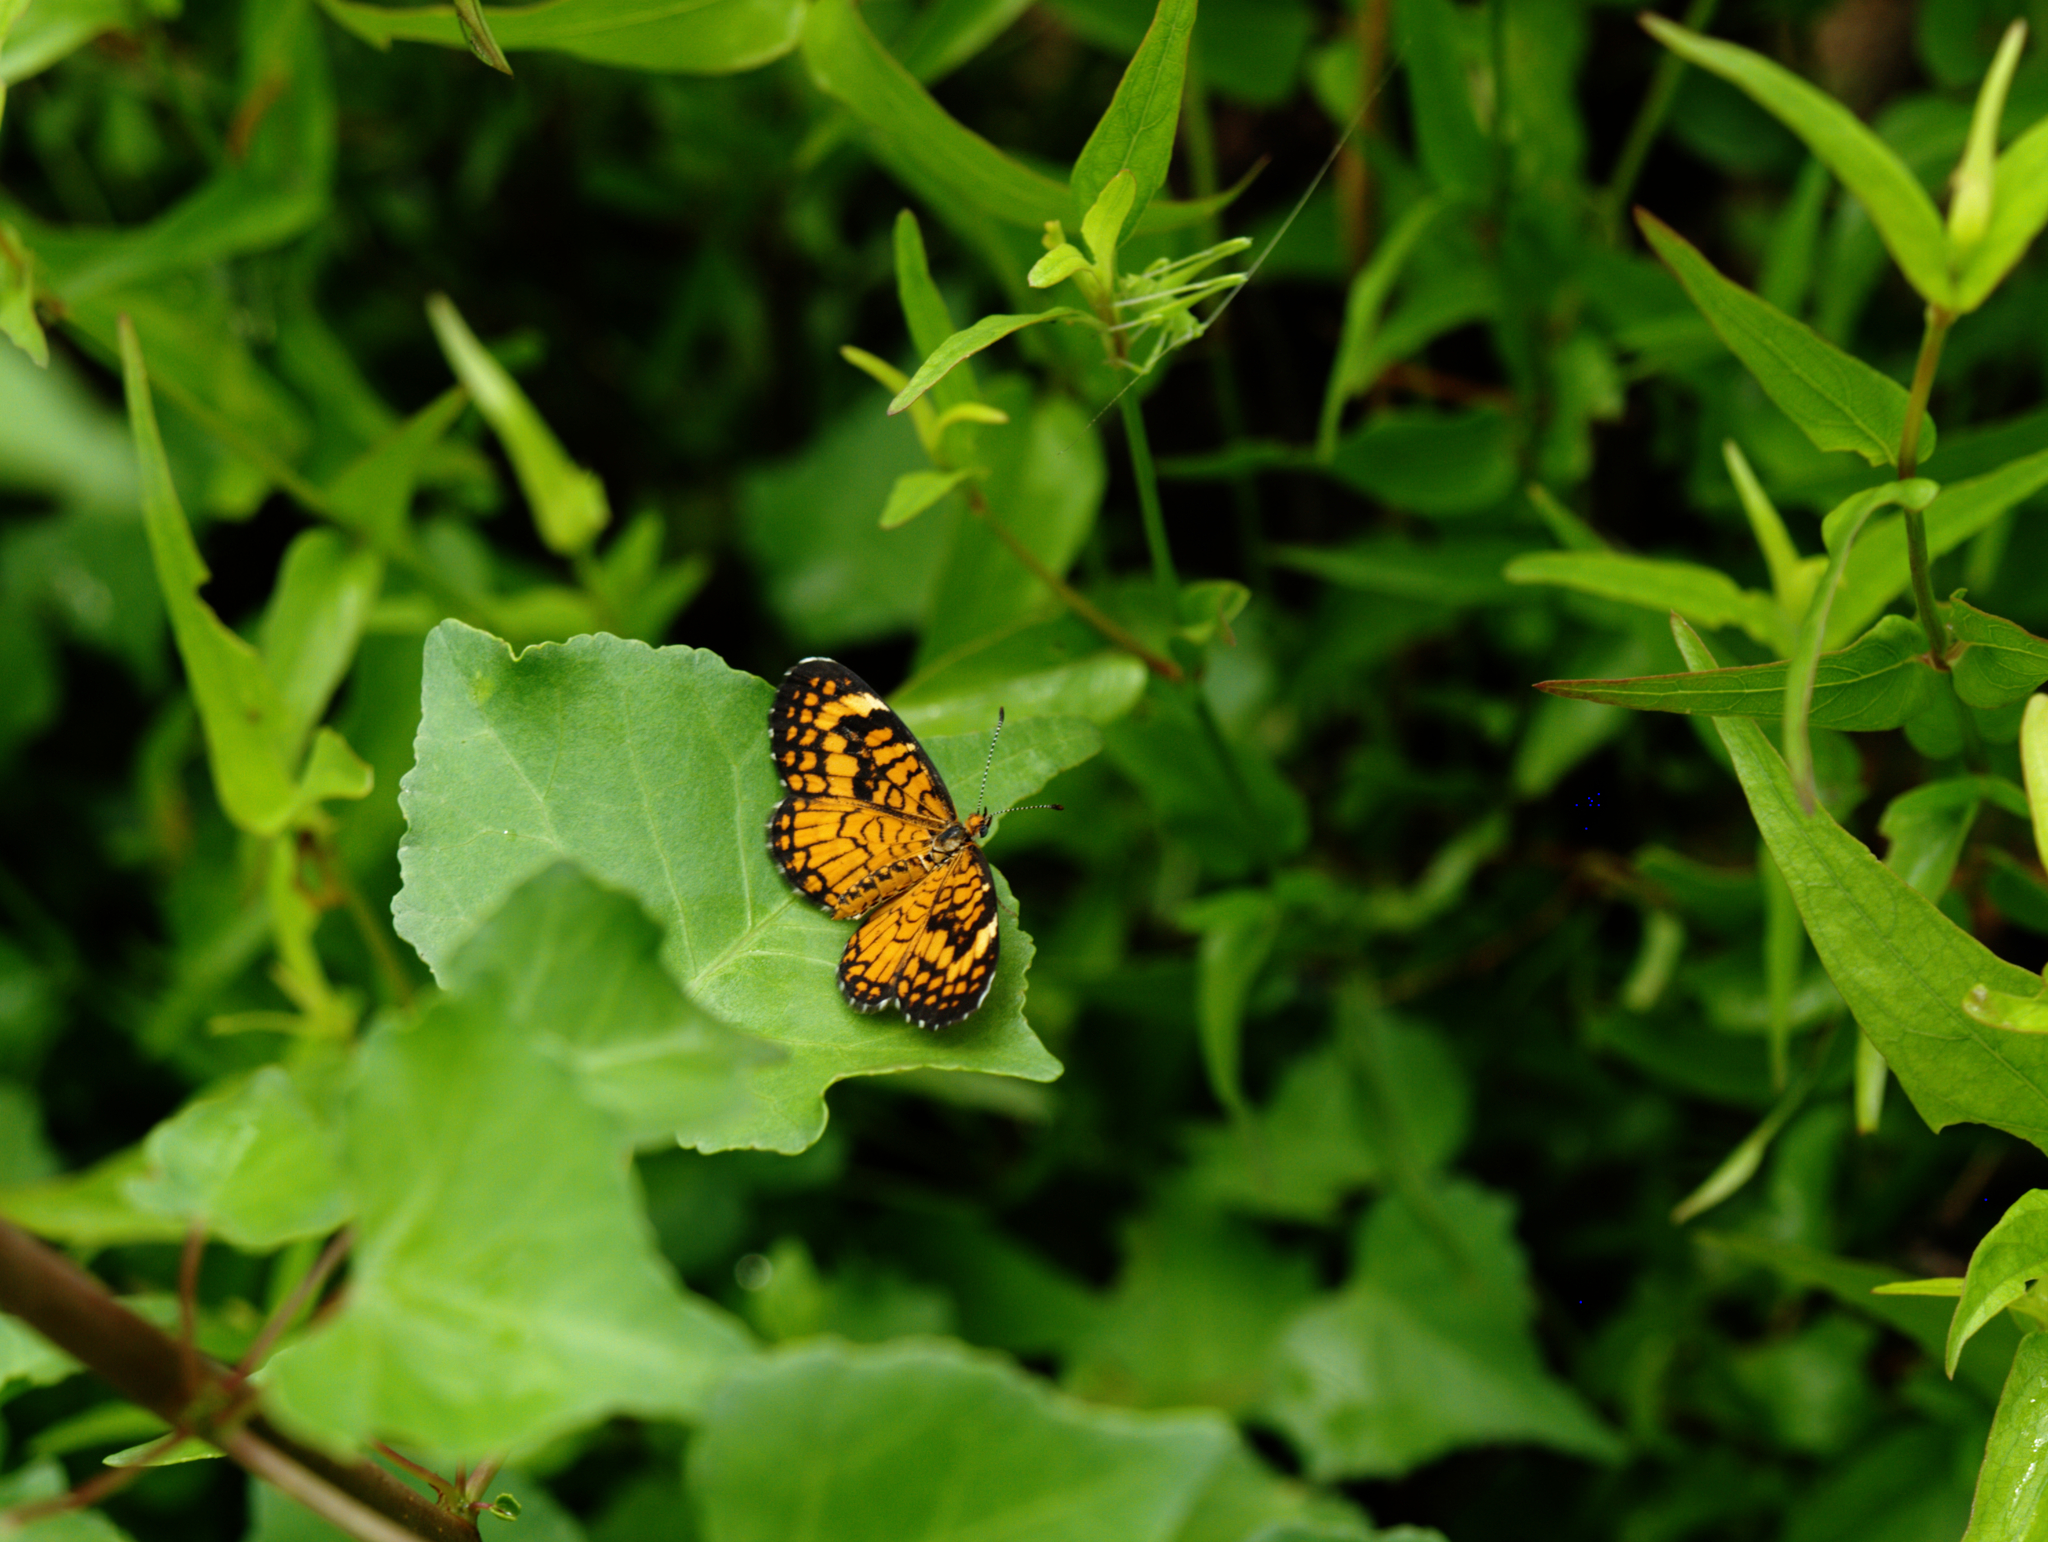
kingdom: Animalia
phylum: Arthropoda
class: Insecta
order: Lepidoptera
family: Nymphalidae
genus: Dymasia
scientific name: Dymasia dymas
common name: Tiny checkerspot
